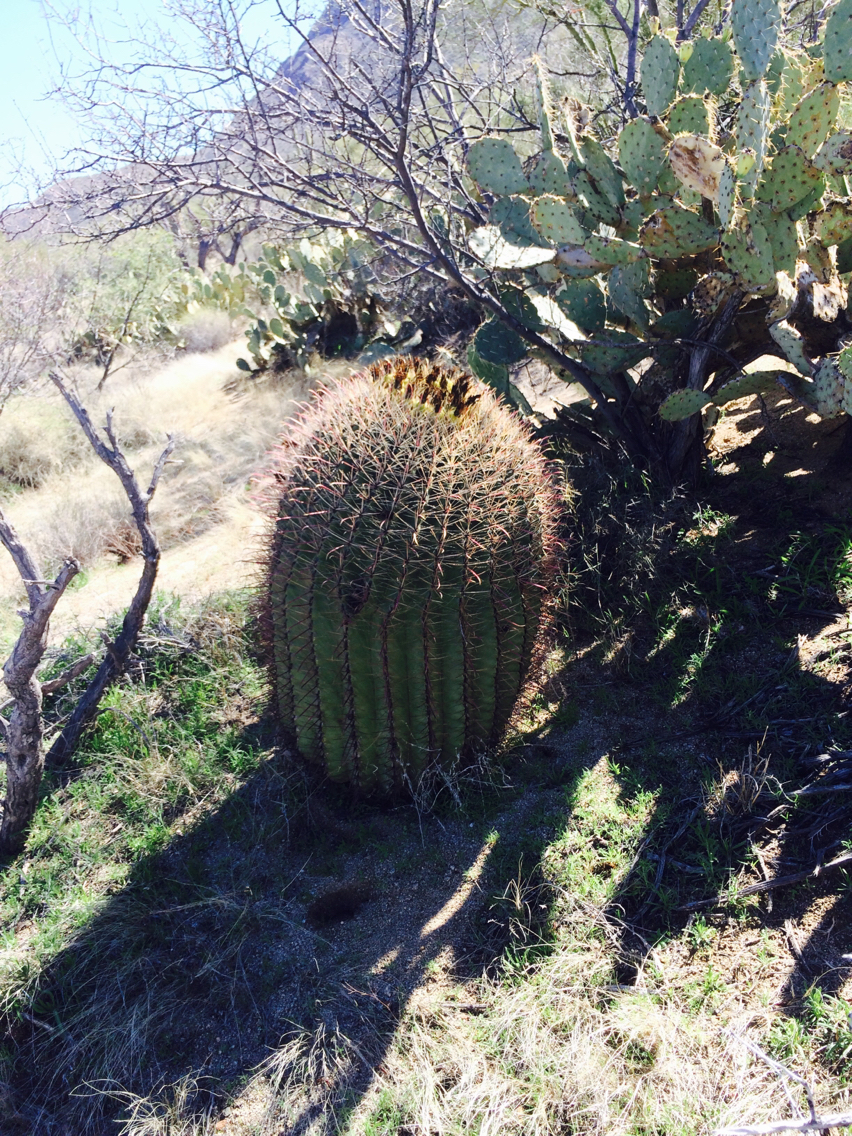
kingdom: Plantae
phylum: Tracheophyta
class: Magnoliopsida
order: Caryophyllales
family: Cactaceae
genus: Ferocactus
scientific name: Ferocactus wislizeni
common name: Candy barrel cactus
